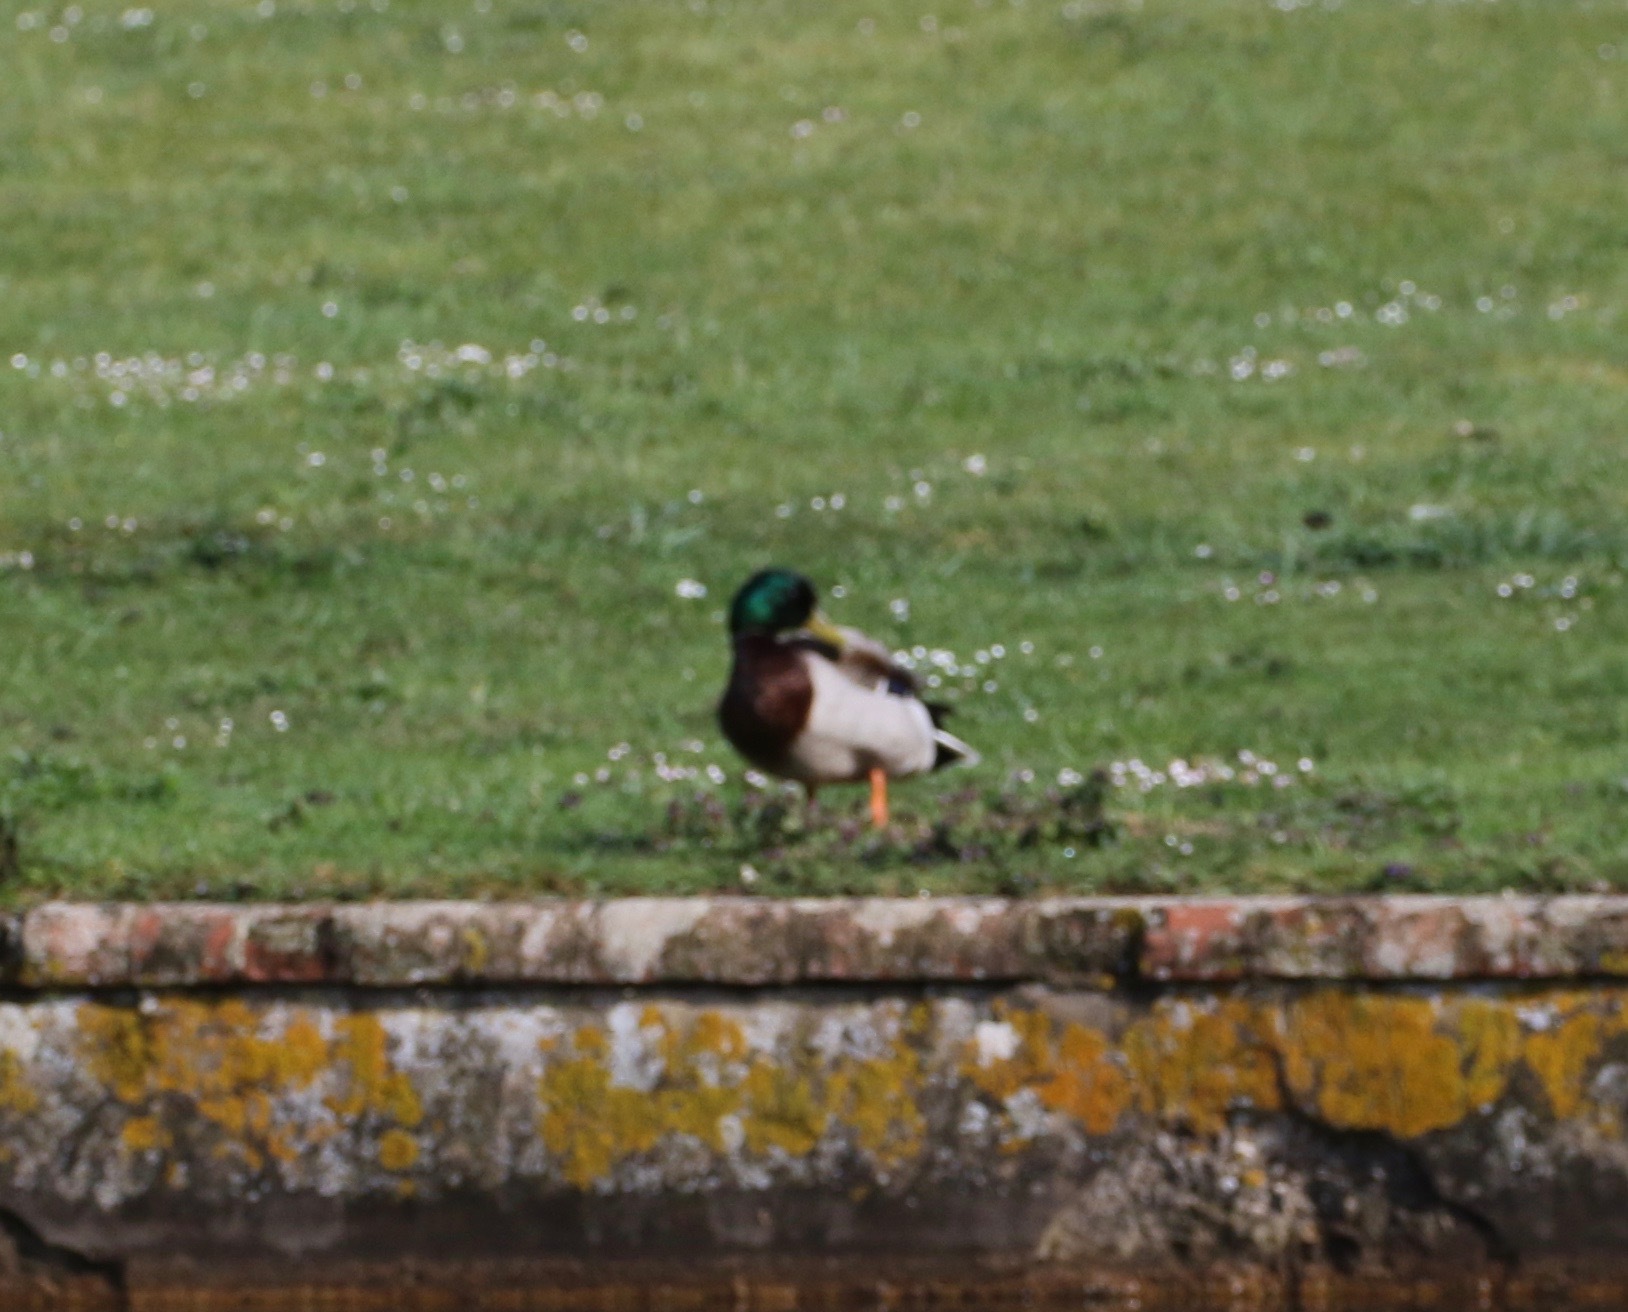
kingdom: Animalia
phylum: Chordata
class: Aves
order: Anseriformes
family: Anatidae
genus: Anas
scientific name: Anas platyrhynchos
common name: Mallard
